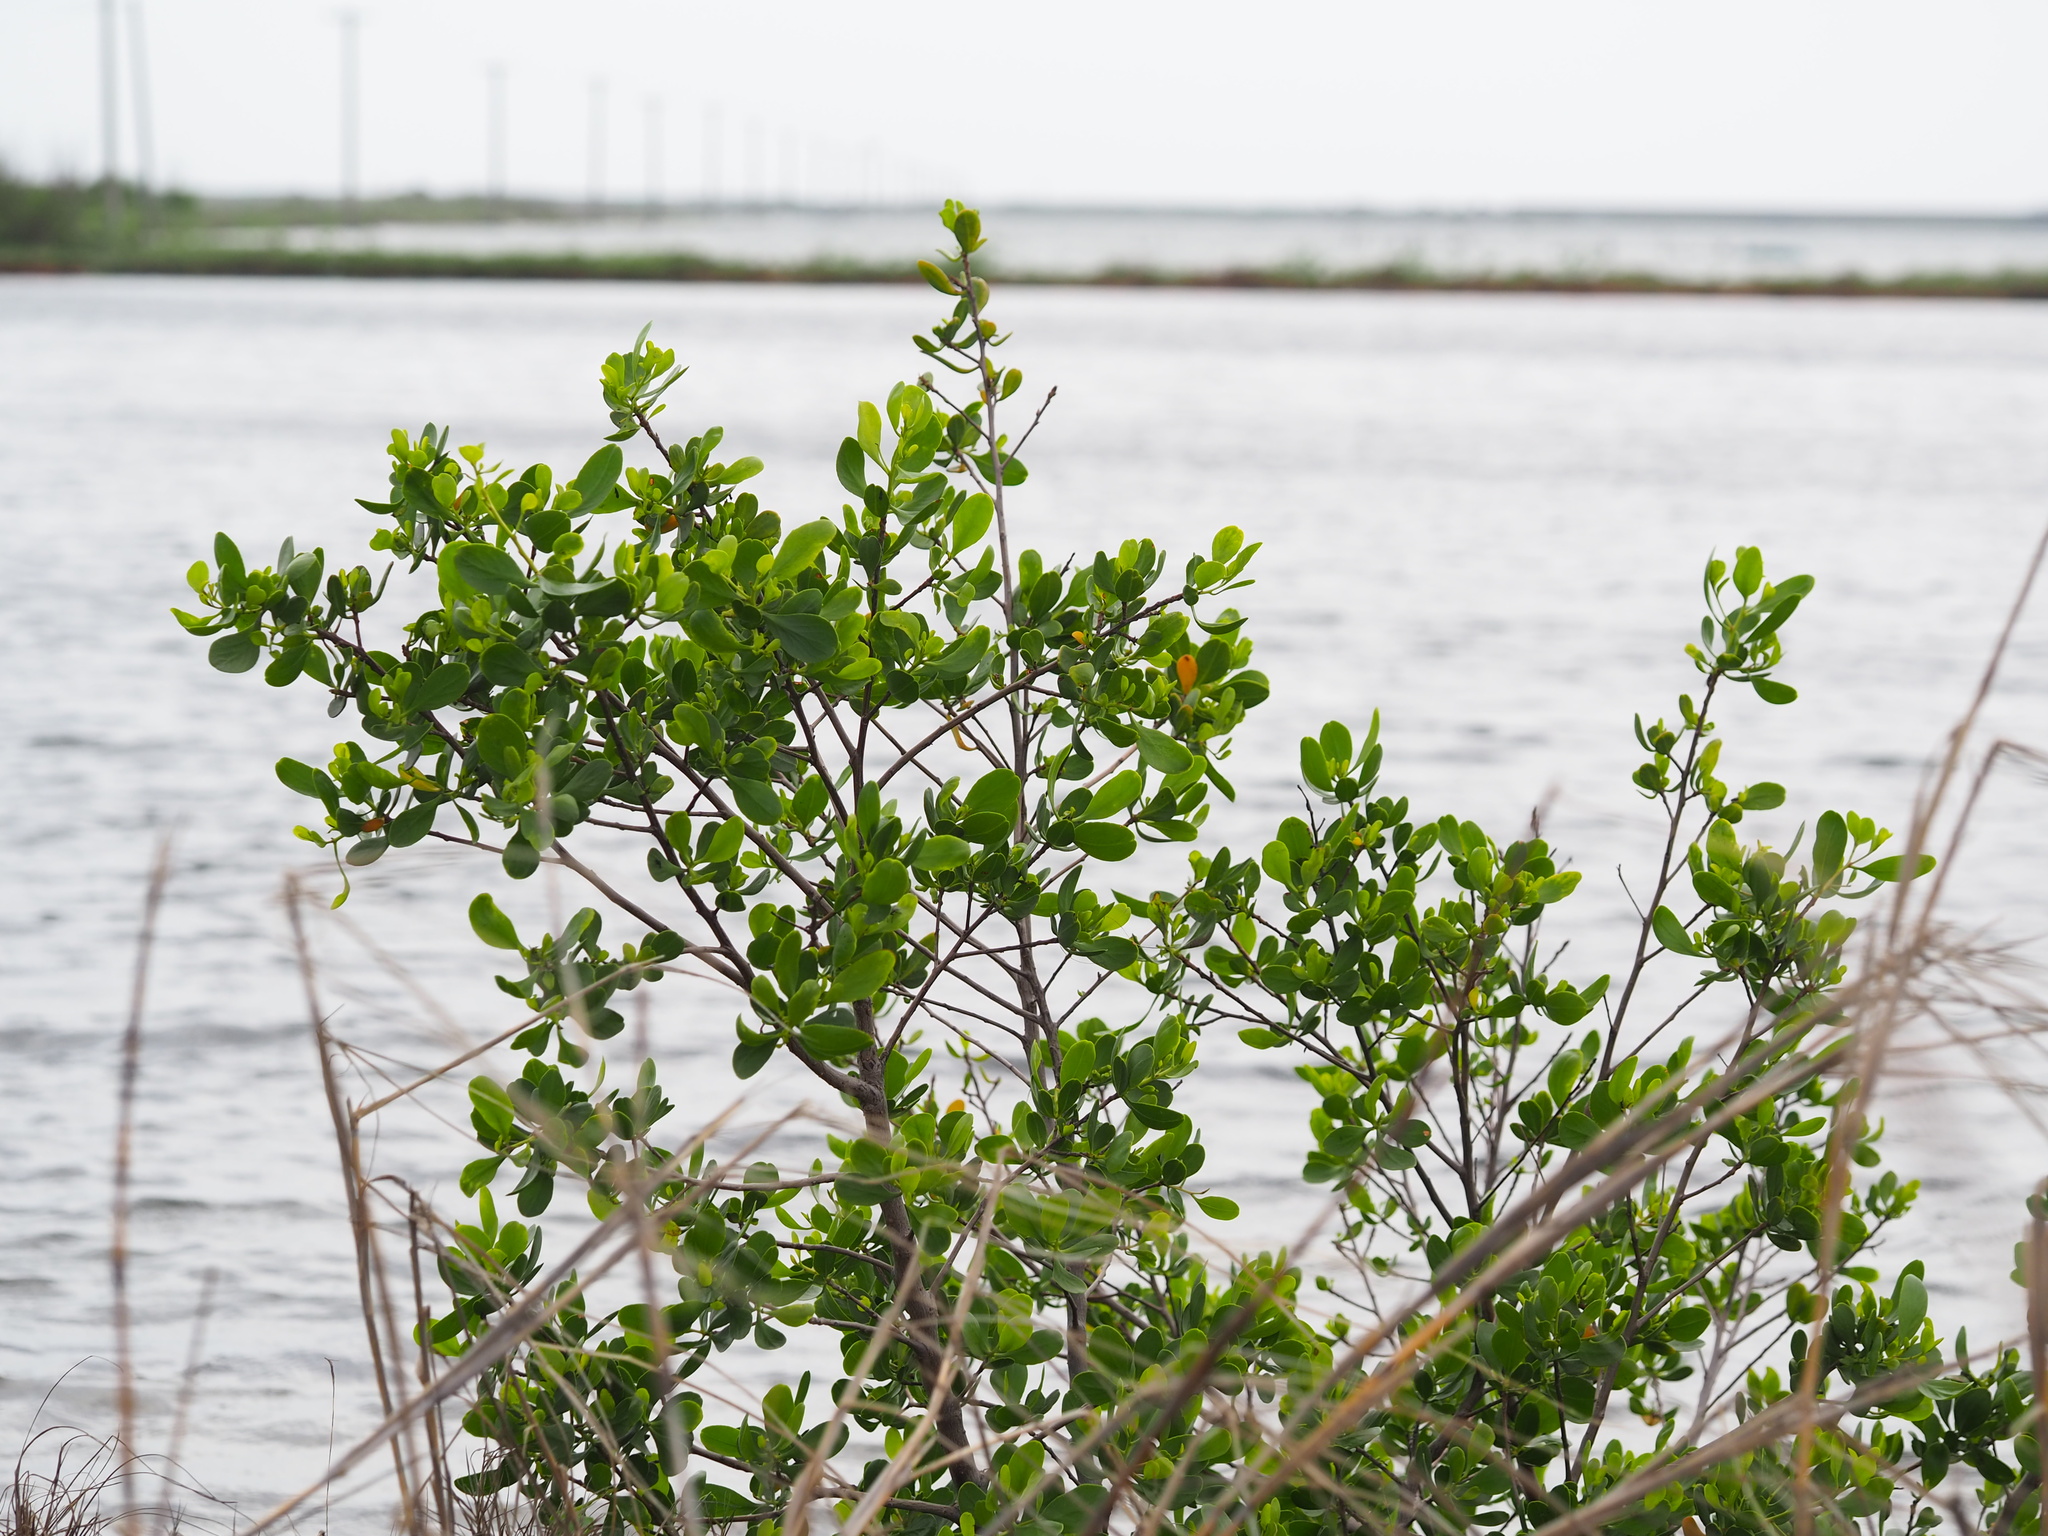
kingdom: Plantae
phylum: Tracheophyta
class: Magnoliopsida
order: Myrtales
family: Combretaceae
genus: Lumnitzera
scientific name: Lumnitzera racemosa
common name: White-flowered black mangrove
